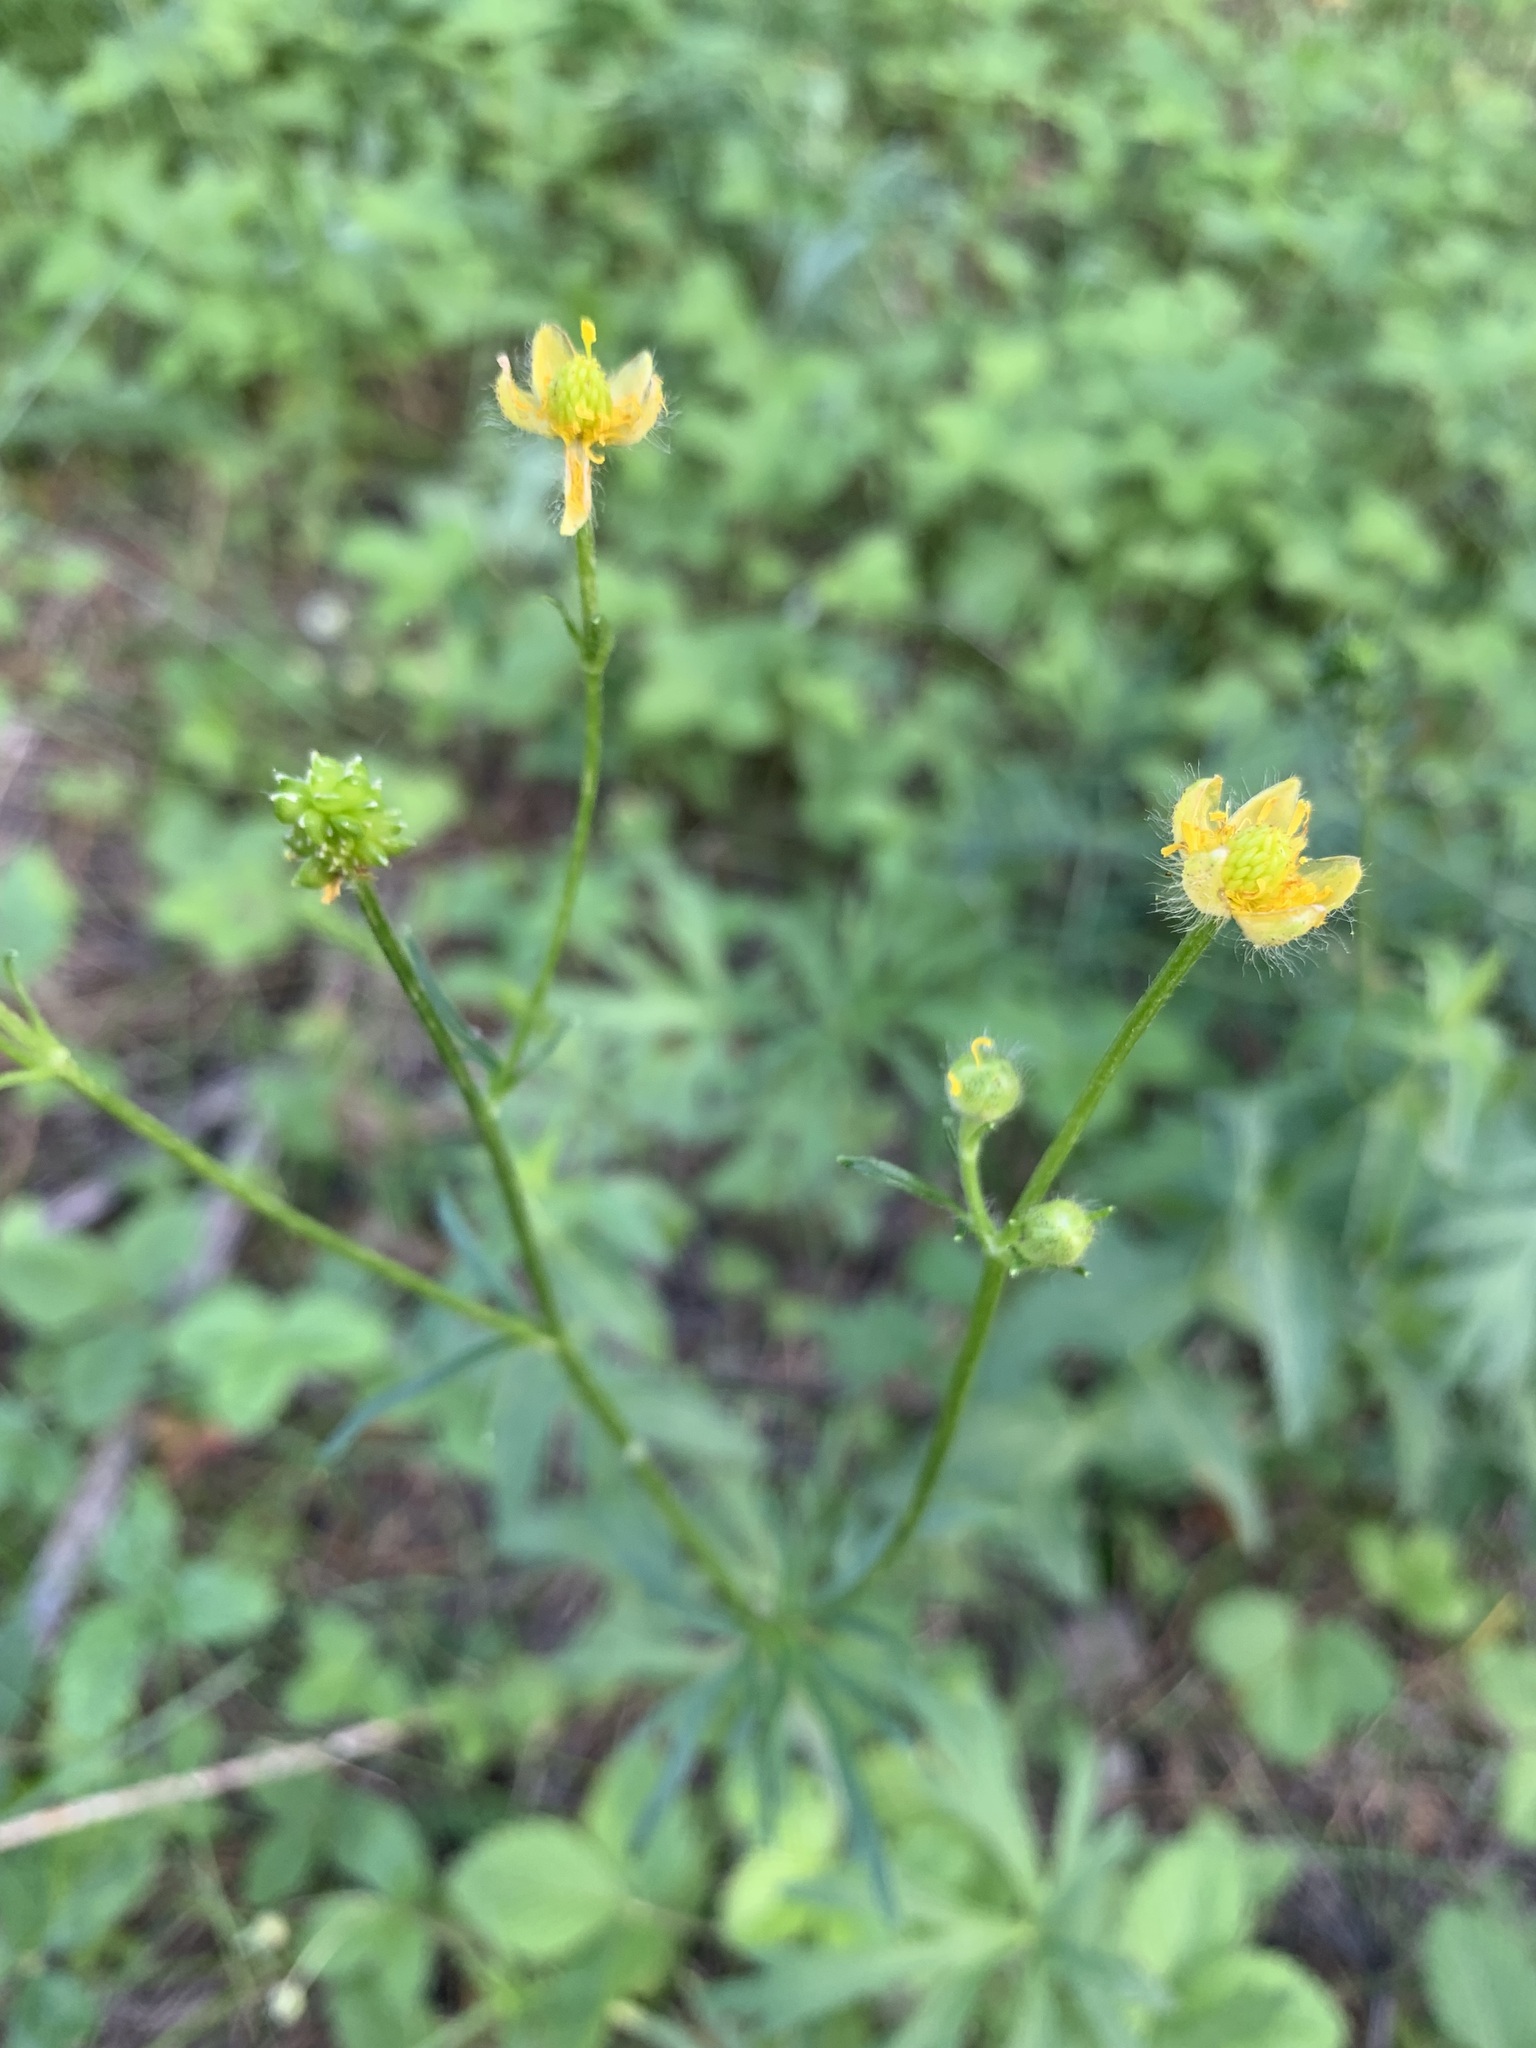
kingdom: Plantae
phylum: Tracheophyta
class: Magnoliopsida
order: Ranunculales
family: Ranunculaceae
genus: Ranunculus
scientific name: Ranunculus polyanthemos
